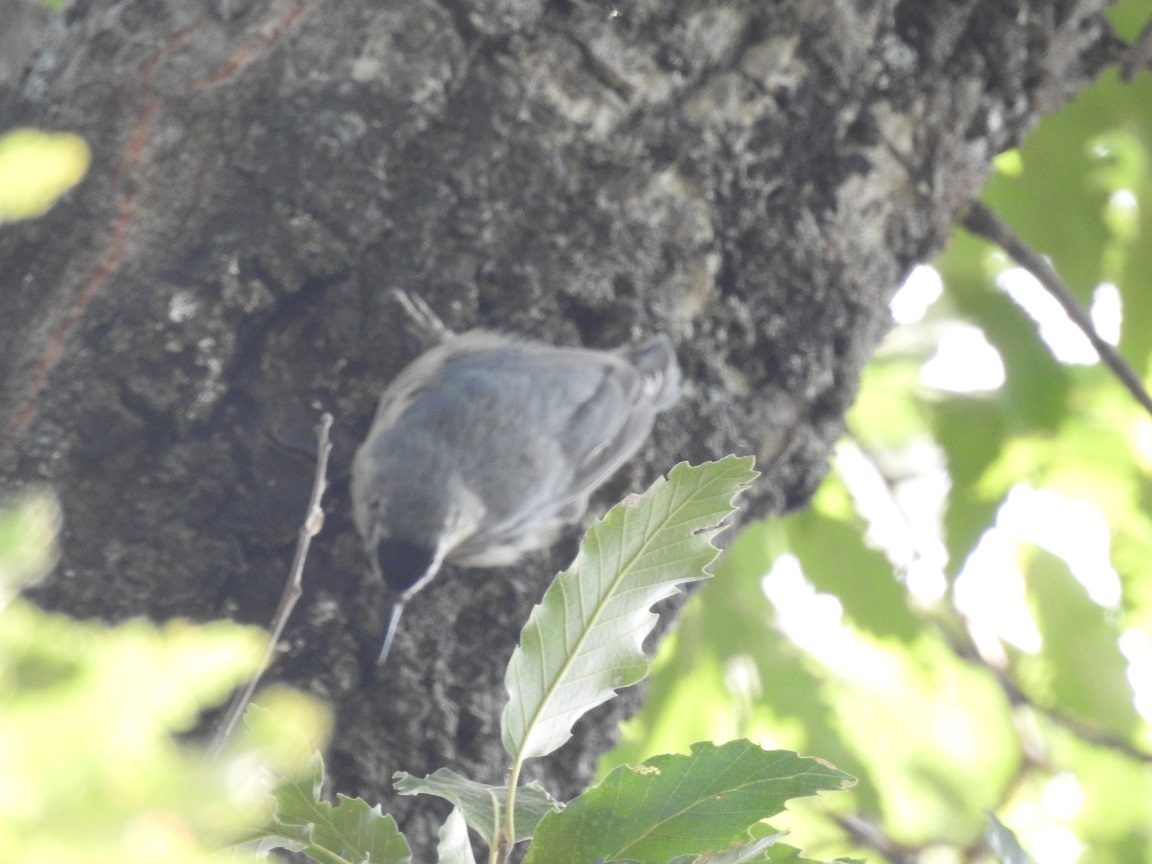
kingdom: Animalia
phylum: Chordata
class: Aves
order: Passeriformes
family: Sittidae
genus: Sitta
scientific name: Sitta ledanti
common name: Algerian nuthatch
